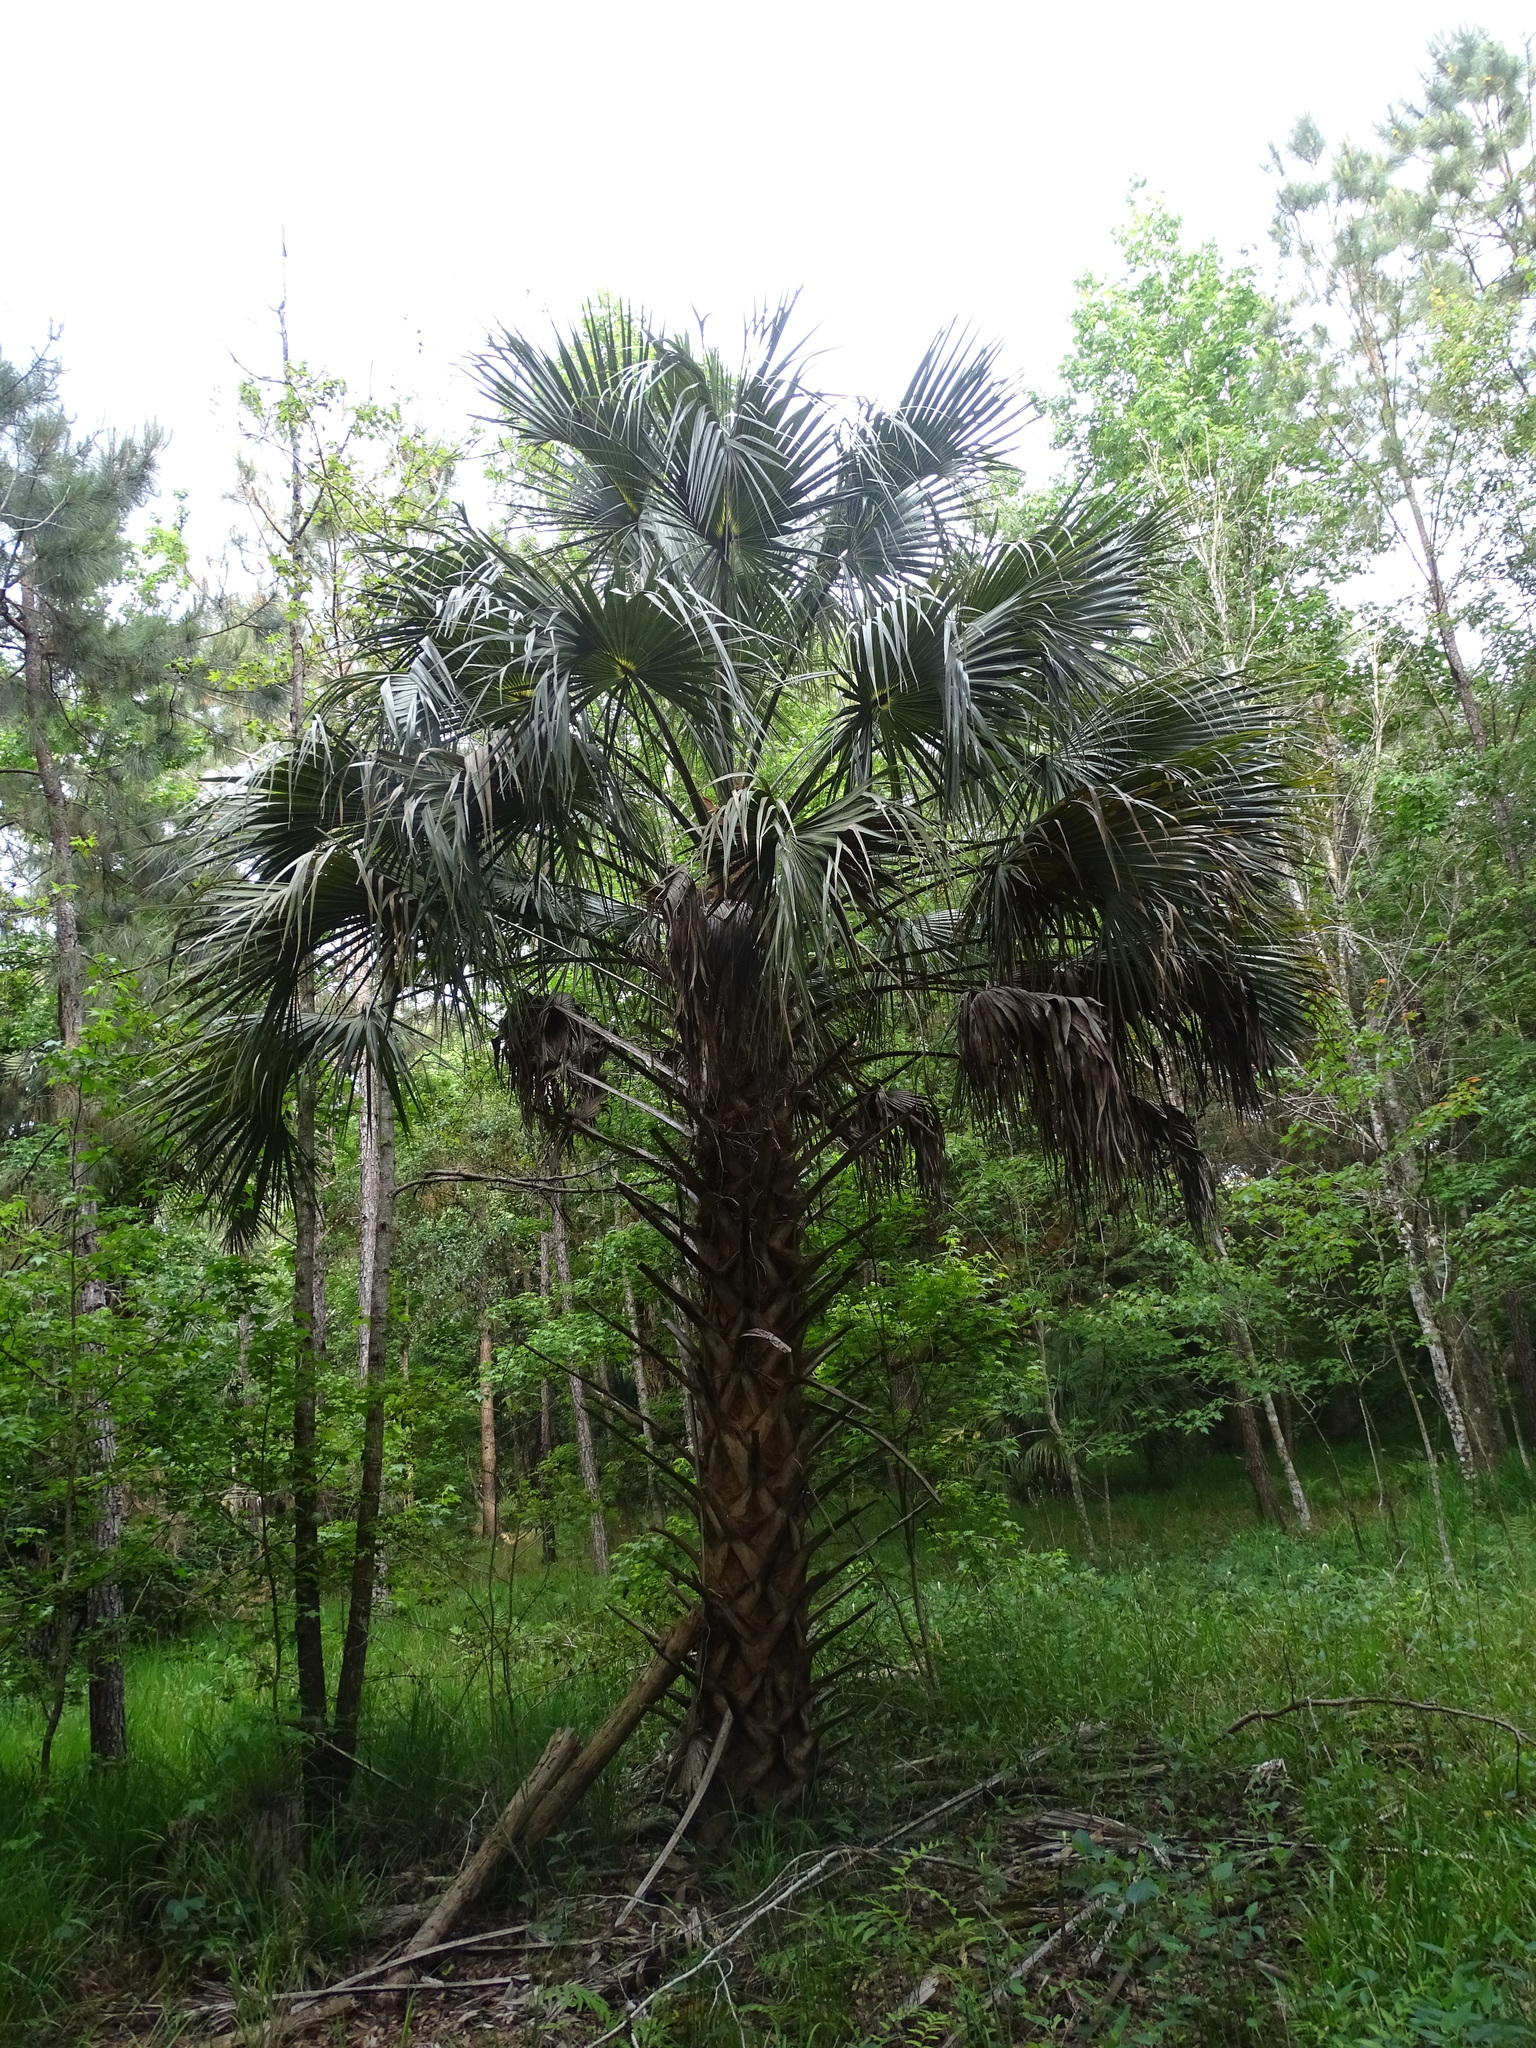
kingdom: Plantae
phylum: Tracheophyta
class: Liliopsida
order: Arecales
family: Arecaceae
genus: Sabal
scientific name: Sabal palmetto
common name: Blue palmetto
